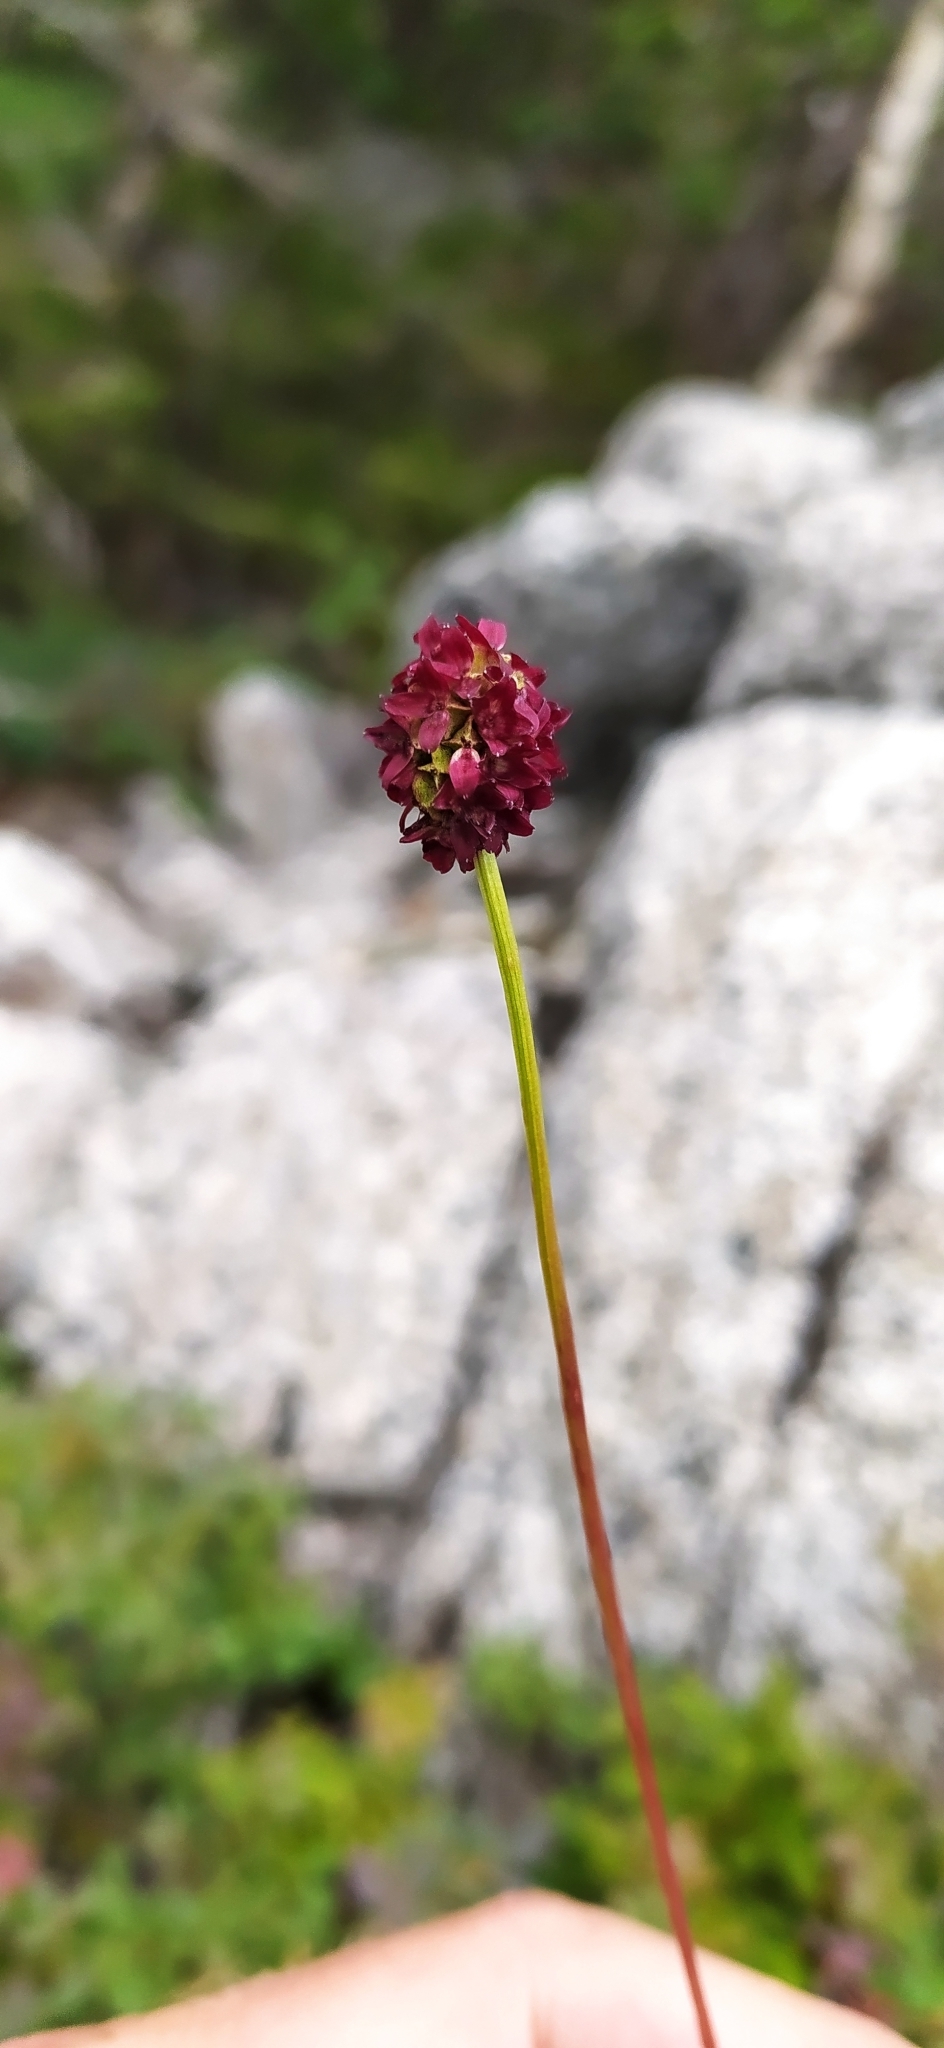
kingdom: Plantae
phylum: Tracheophyta
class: Magnoliopsida
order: Rosales
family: Rosaceae
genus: Sanguisorba
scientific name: Sanguisorba officinalis
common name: Great burnet
